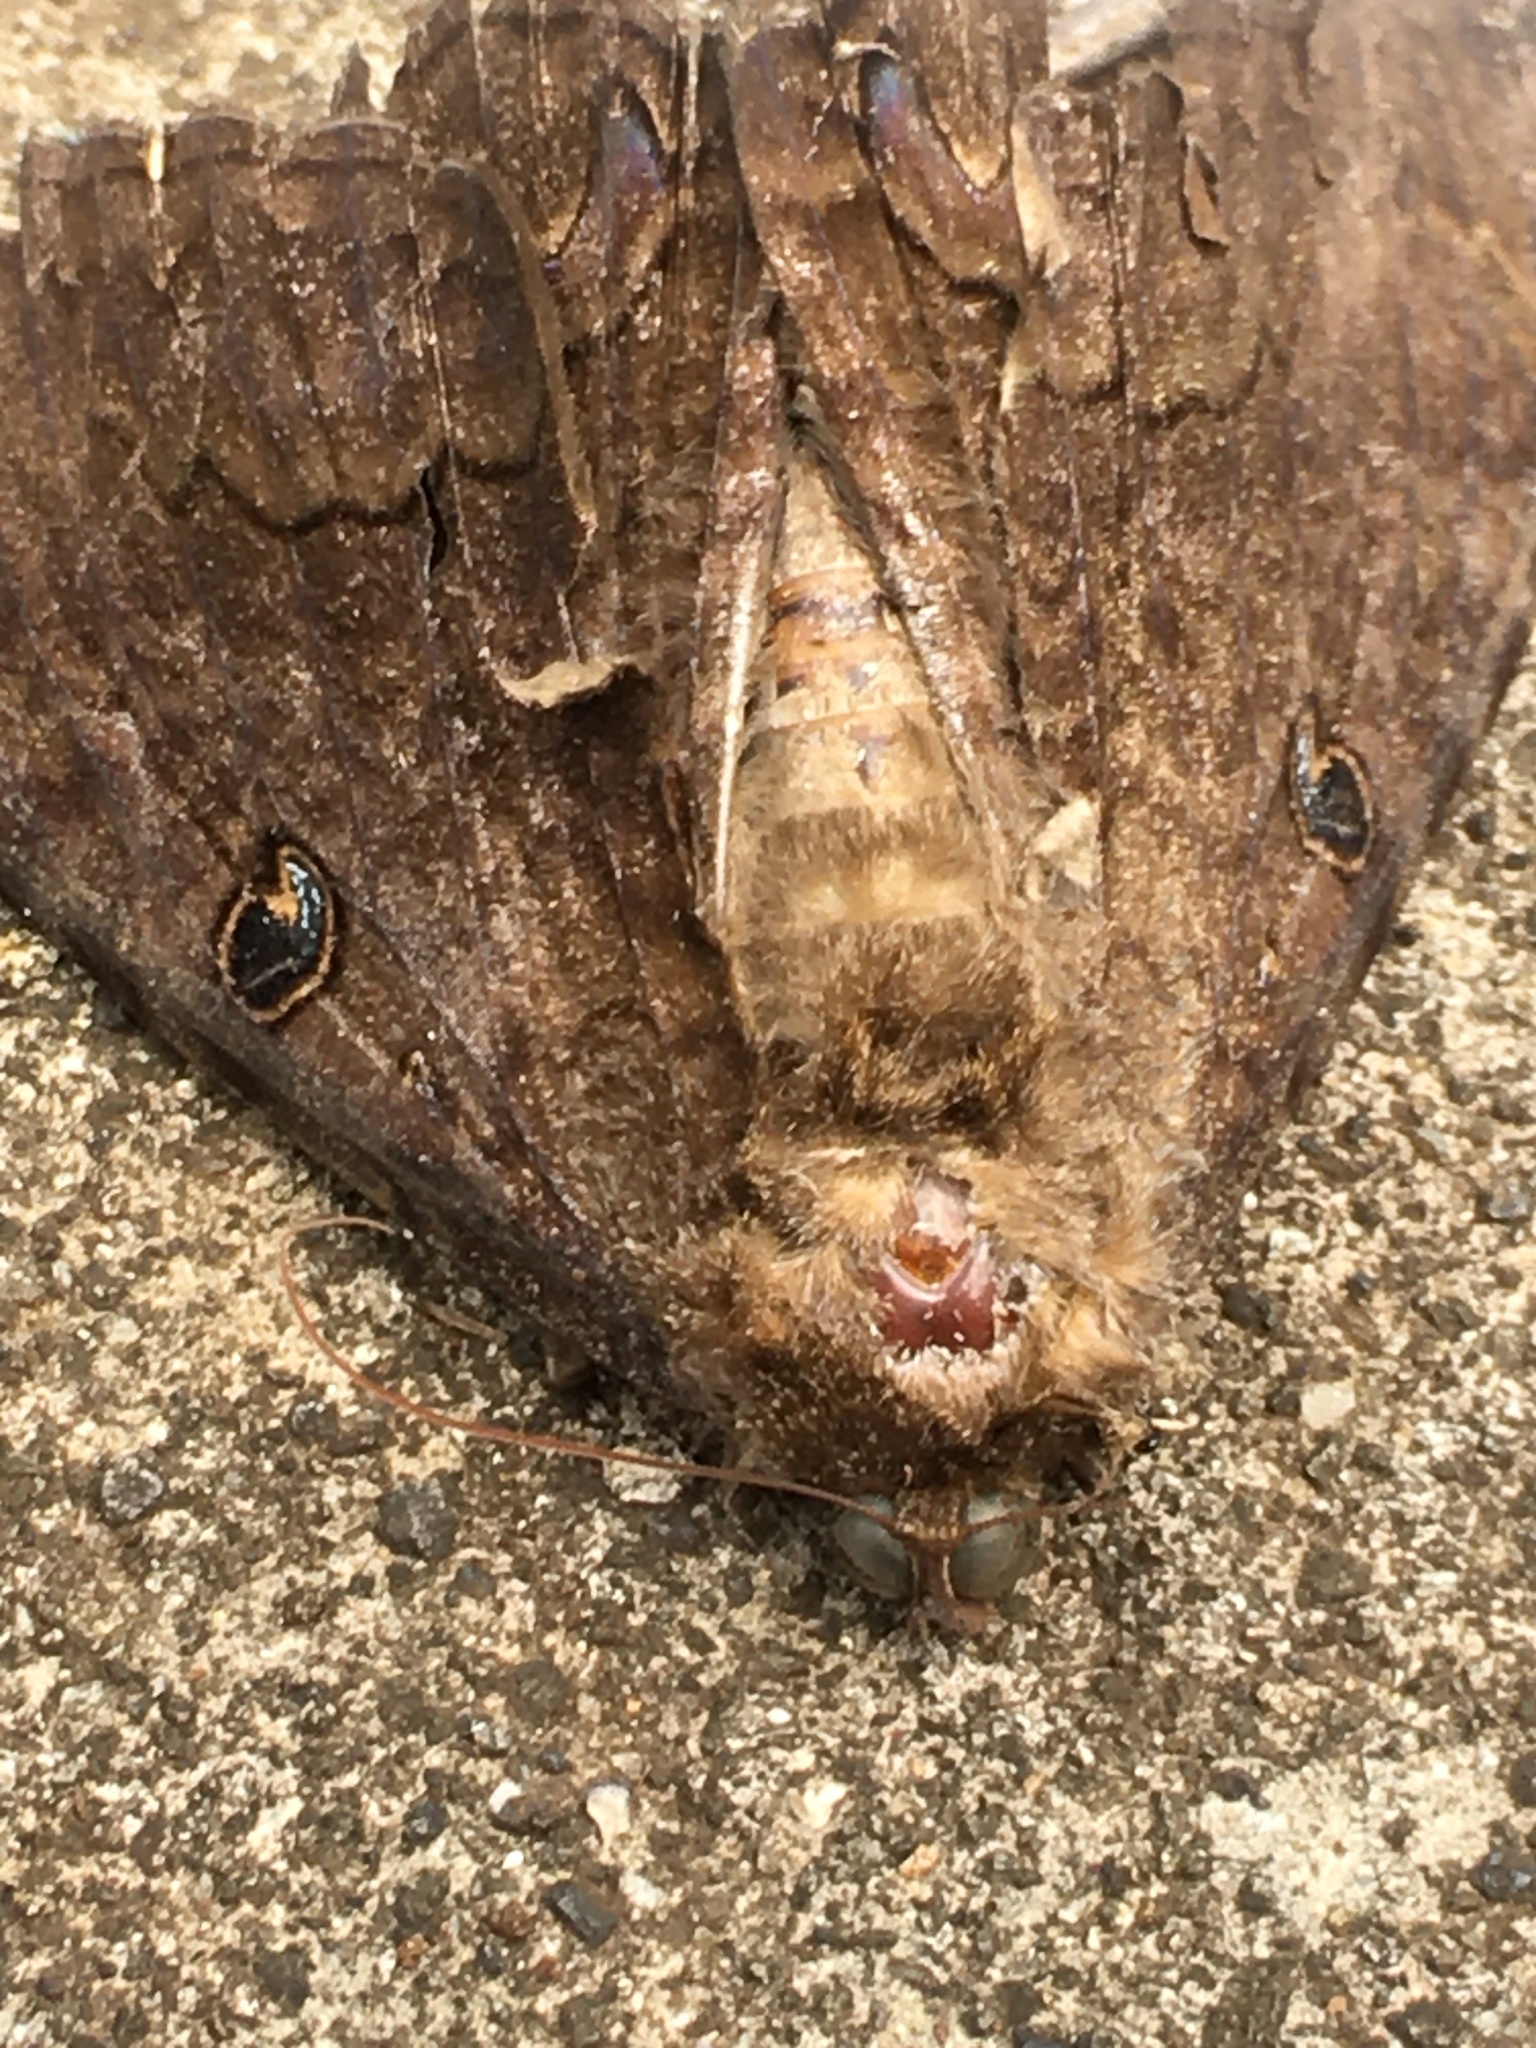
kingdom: Animalia
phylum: Arthropoda
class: Insecta
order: Lepidoptera
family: Erebidae
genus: Ascalapha
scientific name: Ascalapha odorata
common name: Black witch
